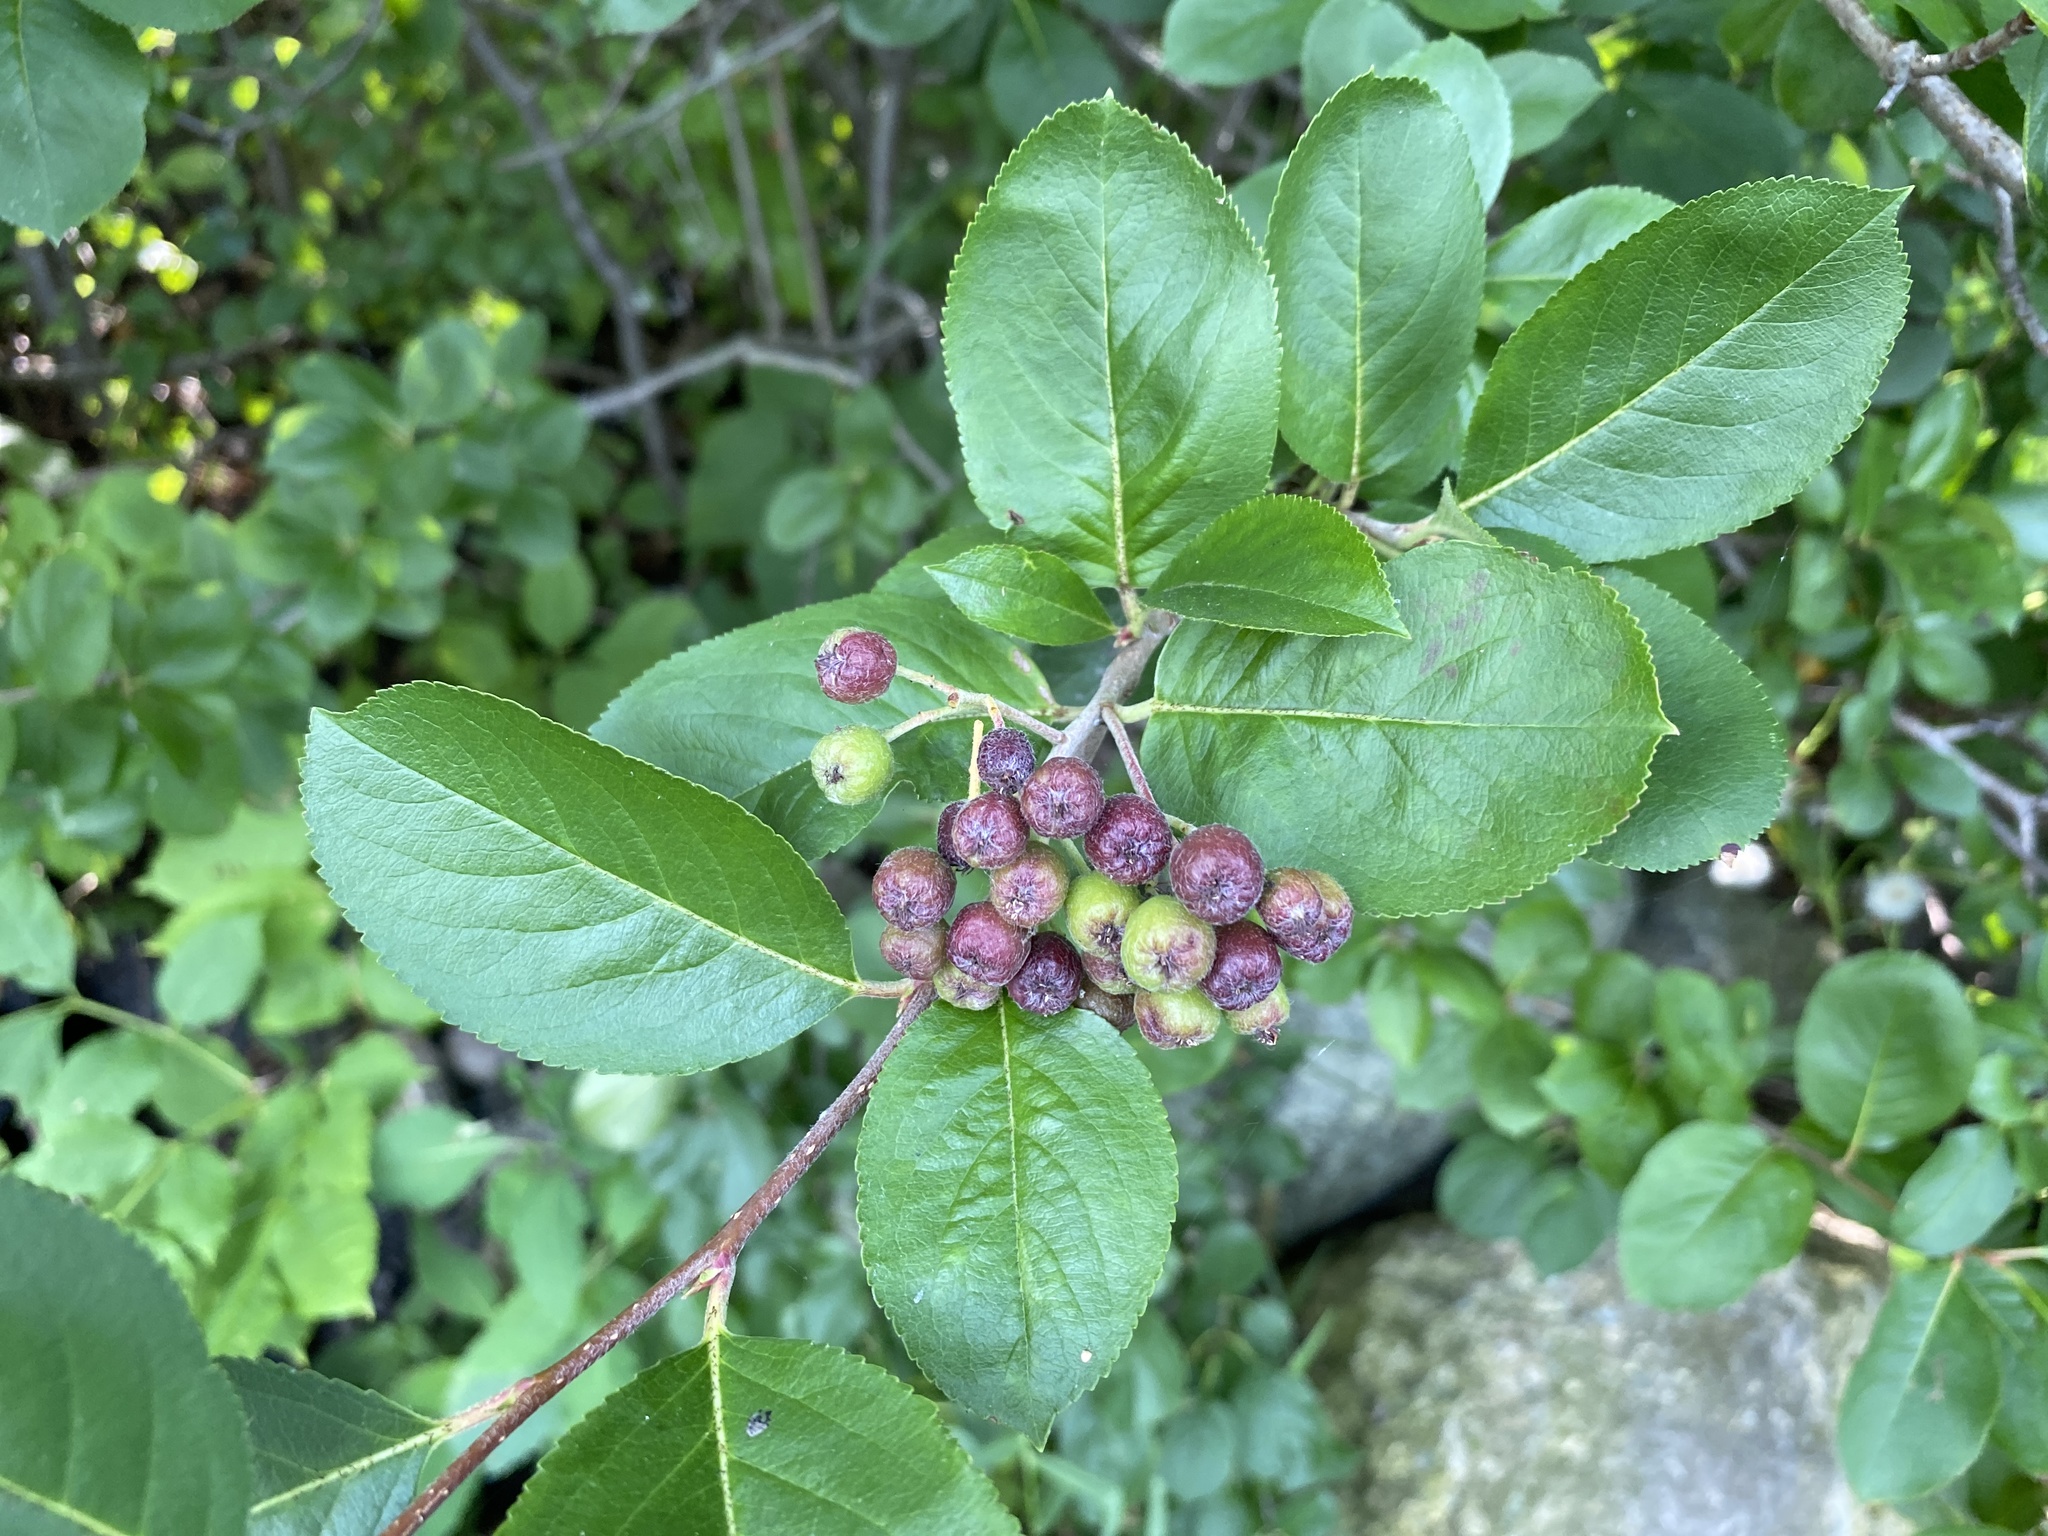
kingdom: Plantae
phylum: Tracheophyta
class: Magnoliopsida
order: Rosales
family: Rosaceae
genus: Aronia
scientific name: Aronia melanocarpa
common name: Black chokeberry
